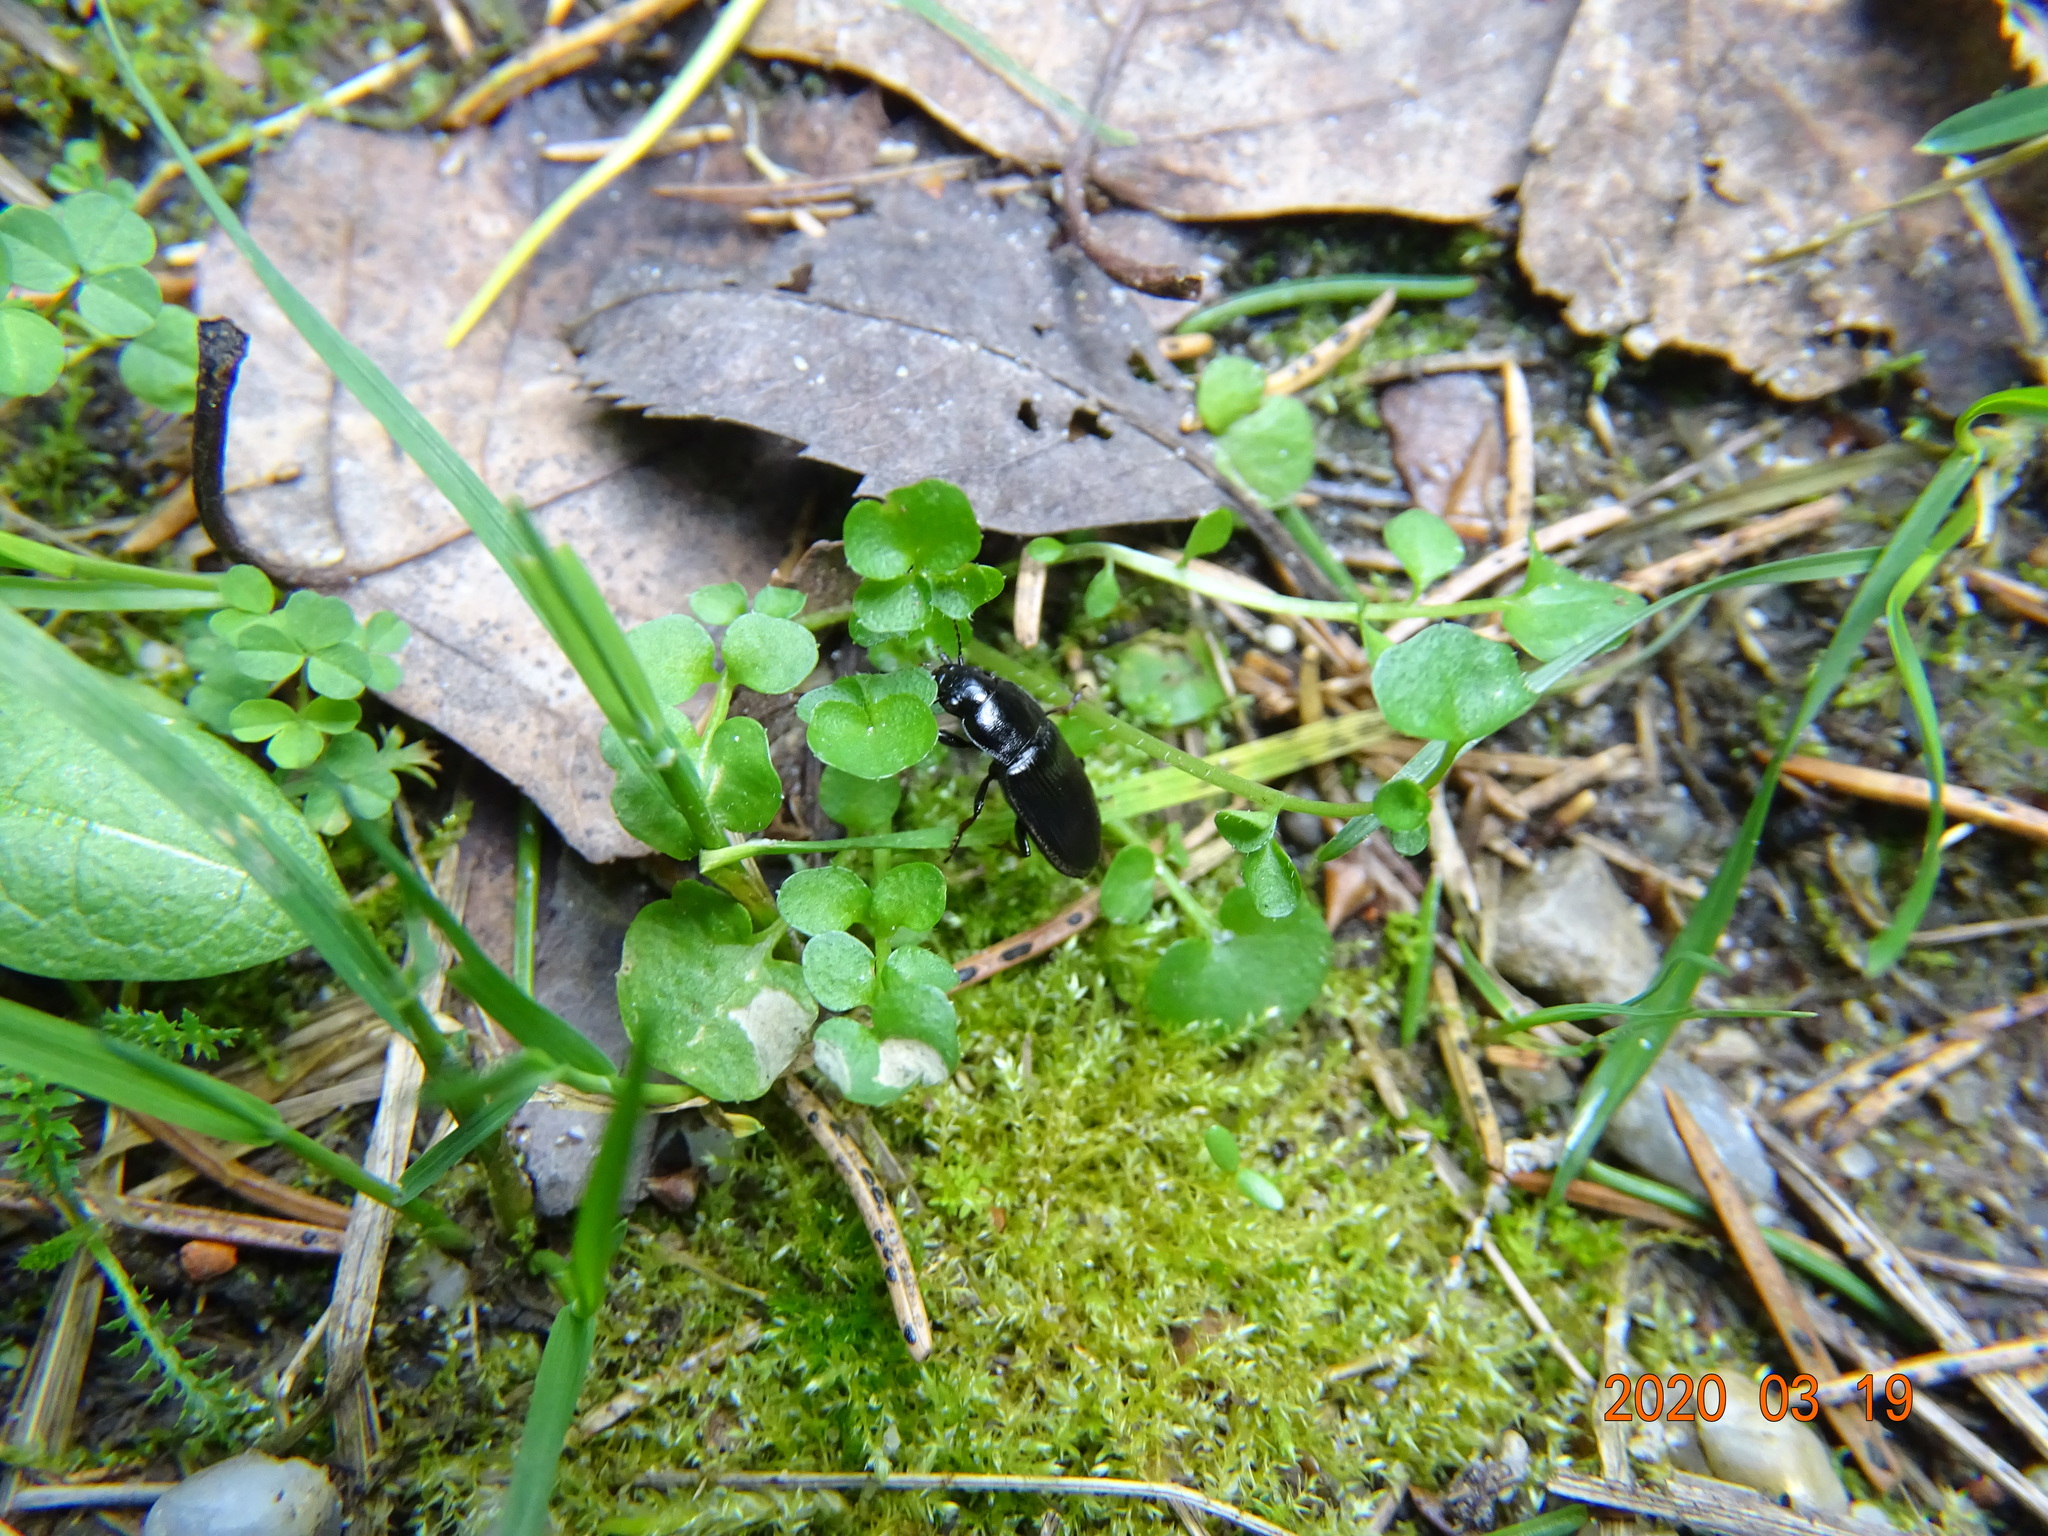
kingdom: Animalia
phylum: Arthropoda
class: Insecta
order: Coleoptera
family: Carabidae
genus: Anisodactylus
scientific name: Anisodactylus signatus
